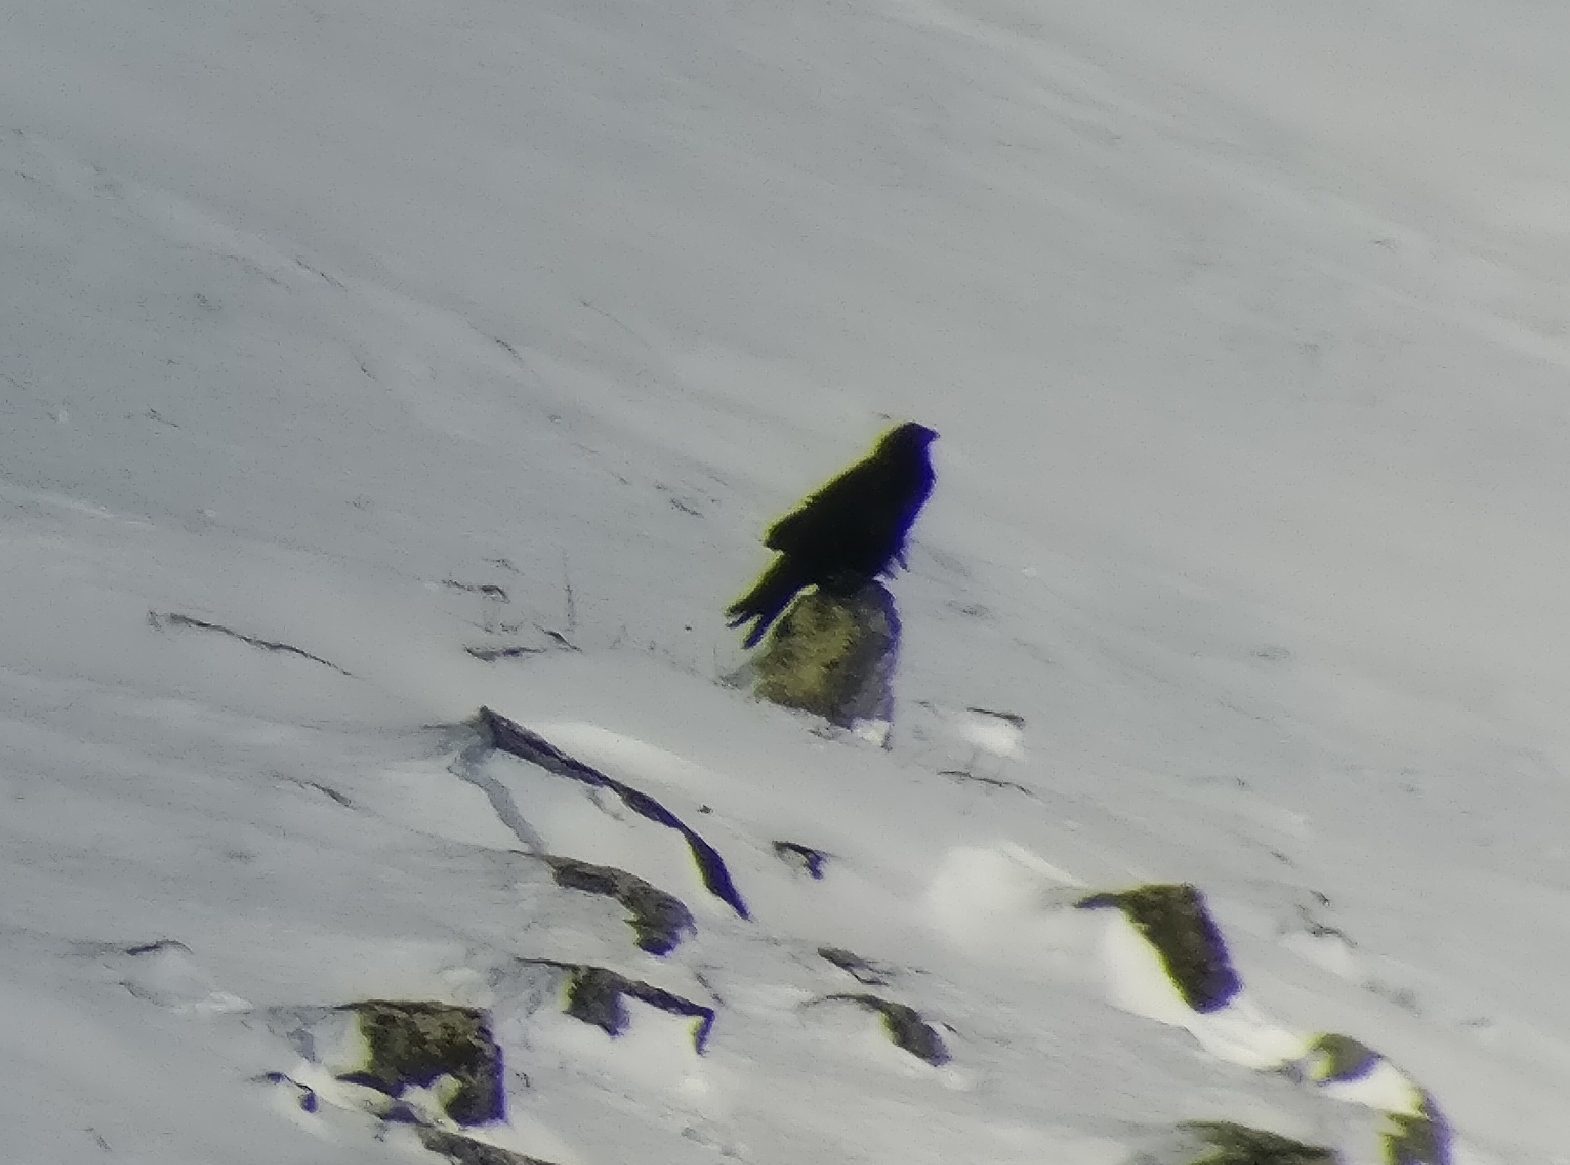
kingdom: Animalia
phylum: Chordata
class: Aves
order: Passeriformes
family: Corvidae
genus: Corvus
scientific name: Corvus corax
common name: Common raven
